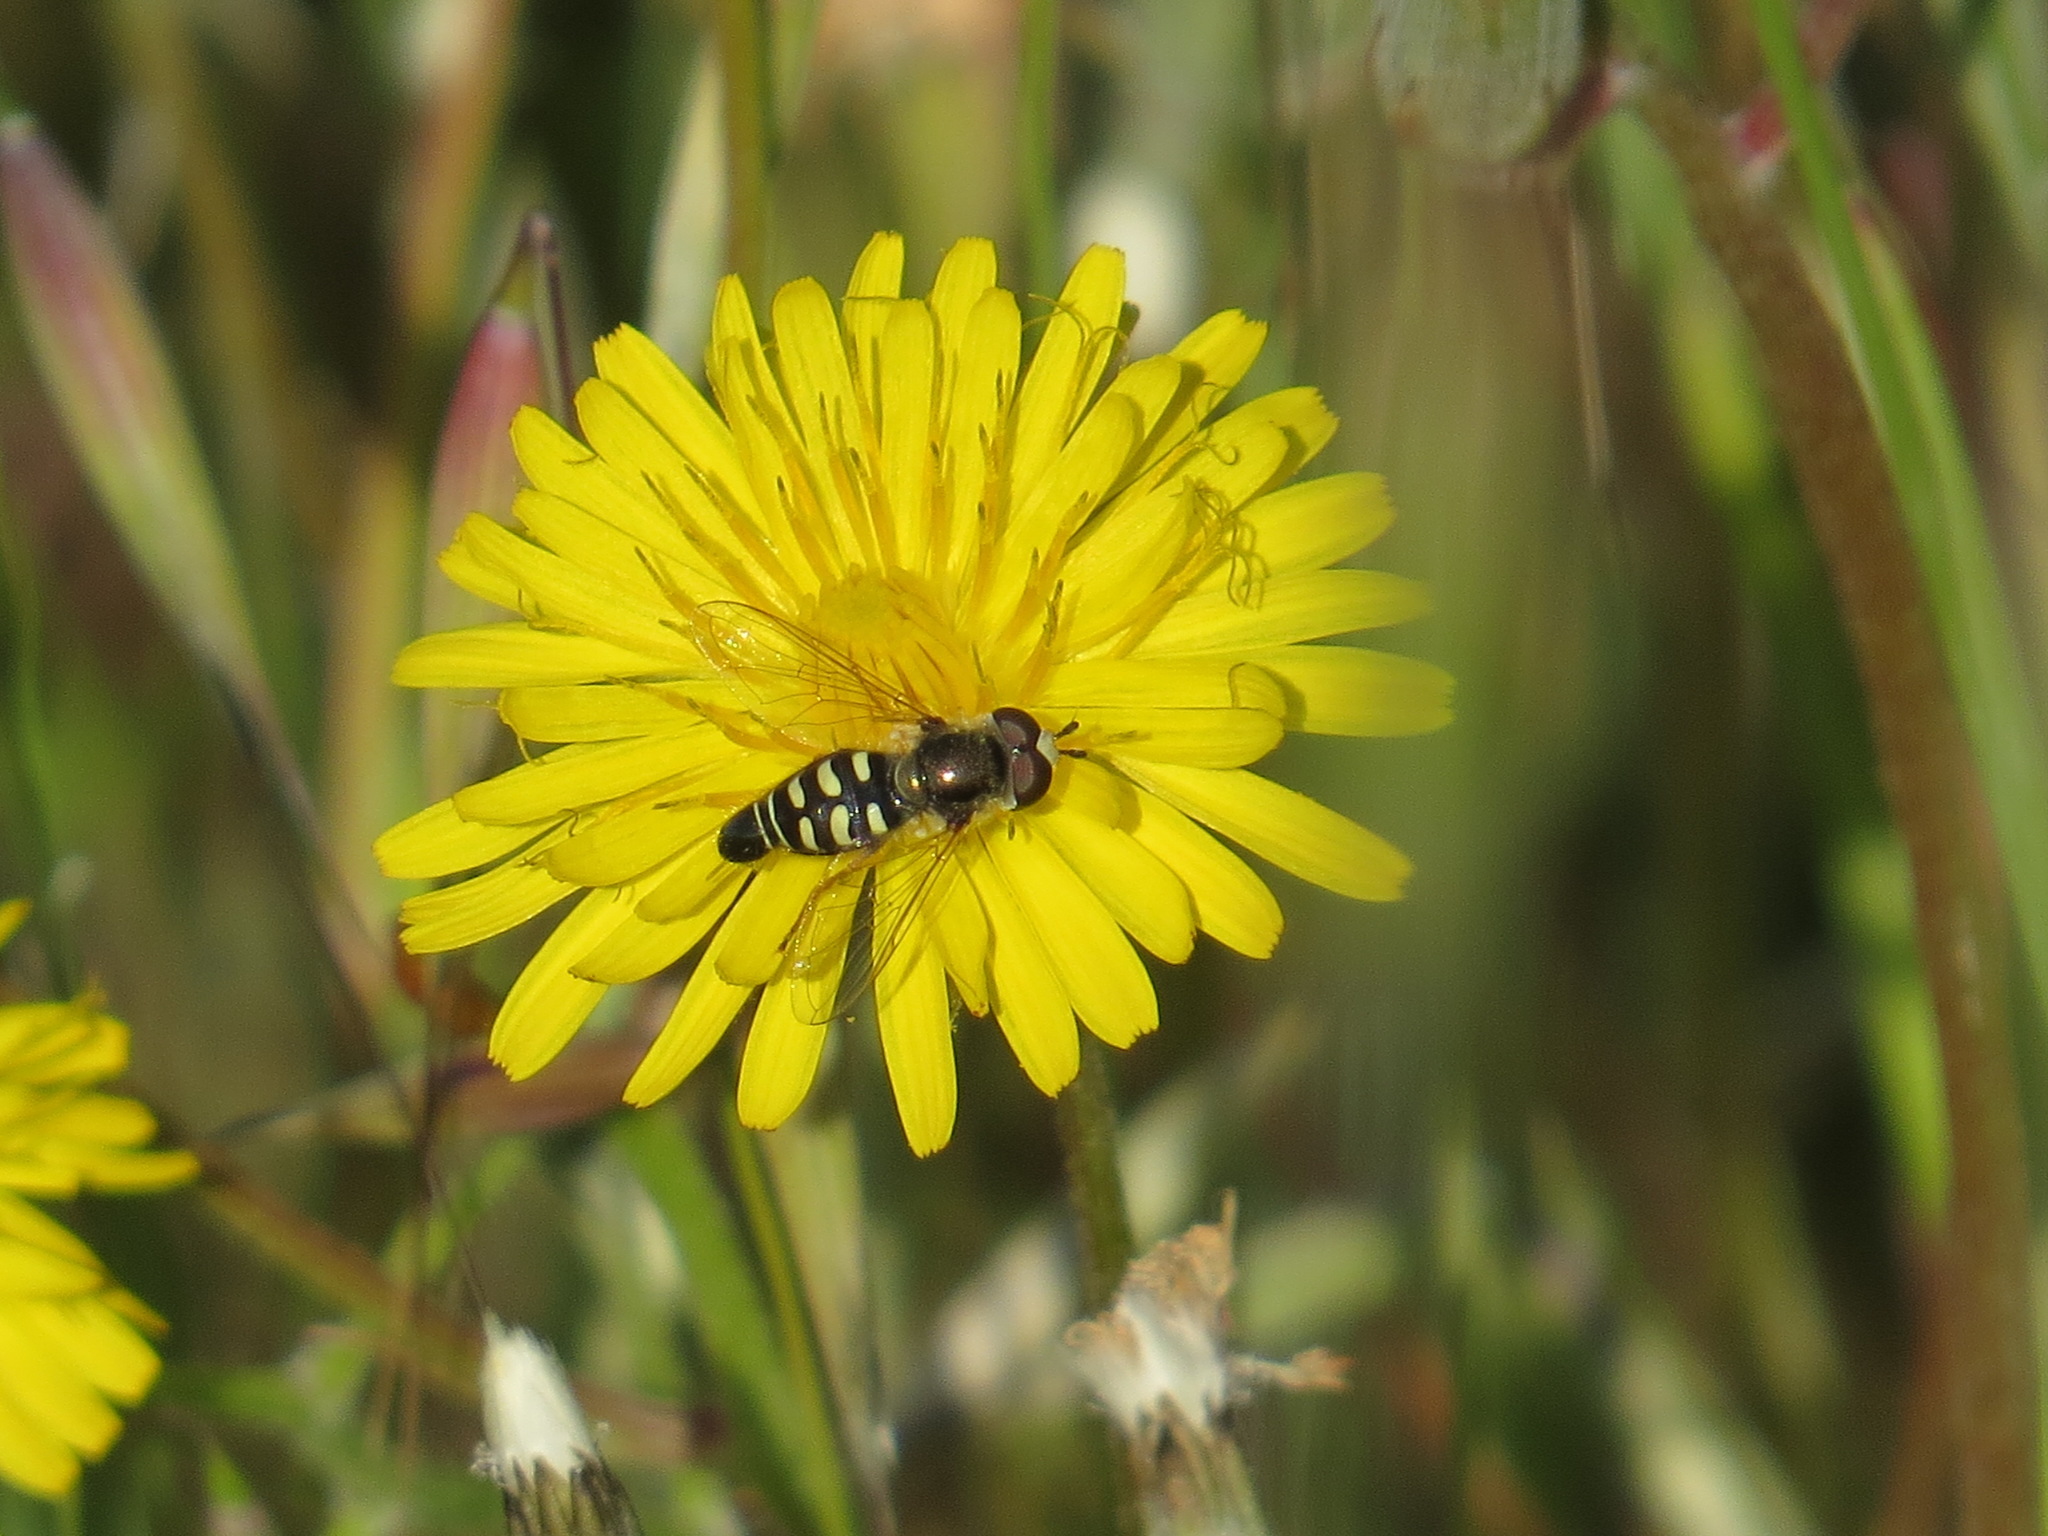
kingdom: Animalia
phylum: Arthropoda
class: Insecta
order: Diptera
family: Syrphidae
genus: Eupeodes
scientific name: Eupeodes volucris
